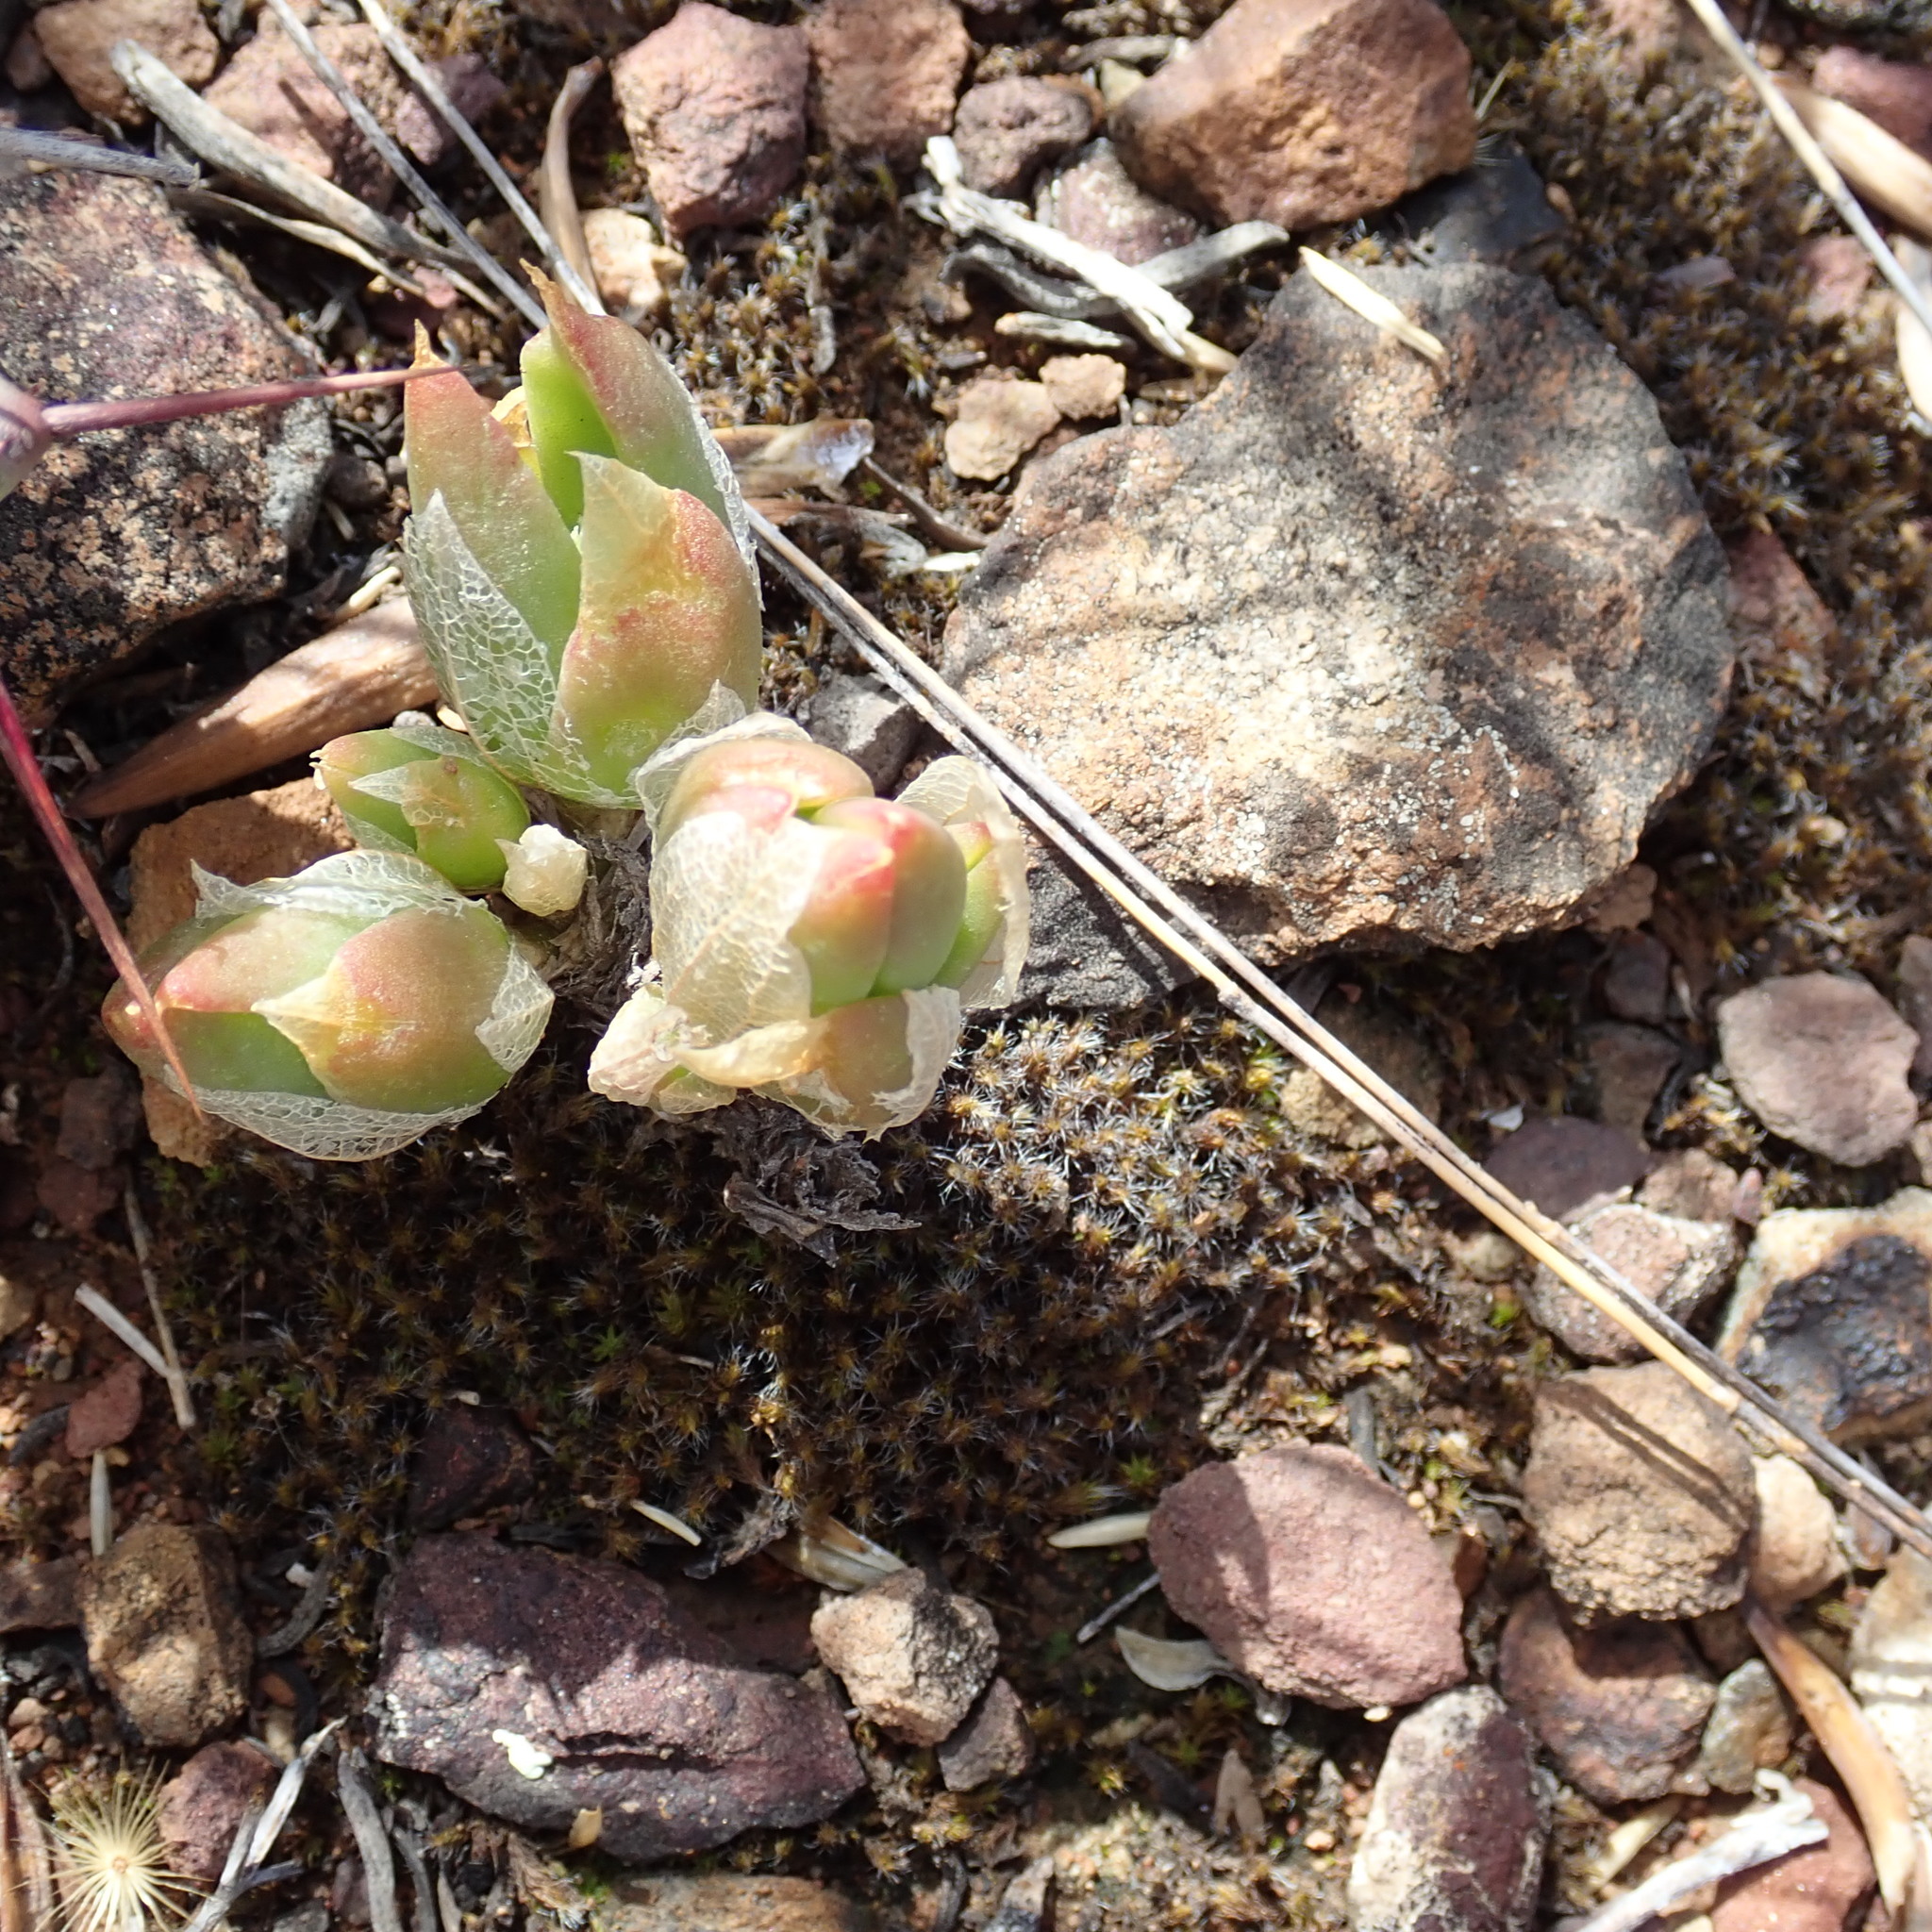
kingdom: Plantae
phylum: Tracheophyta
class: Magnoliopsida
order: Caryophyllales
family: Aizoaceae
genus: Mesembryanthemum
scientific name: Mesembryanthemum tortuosum
